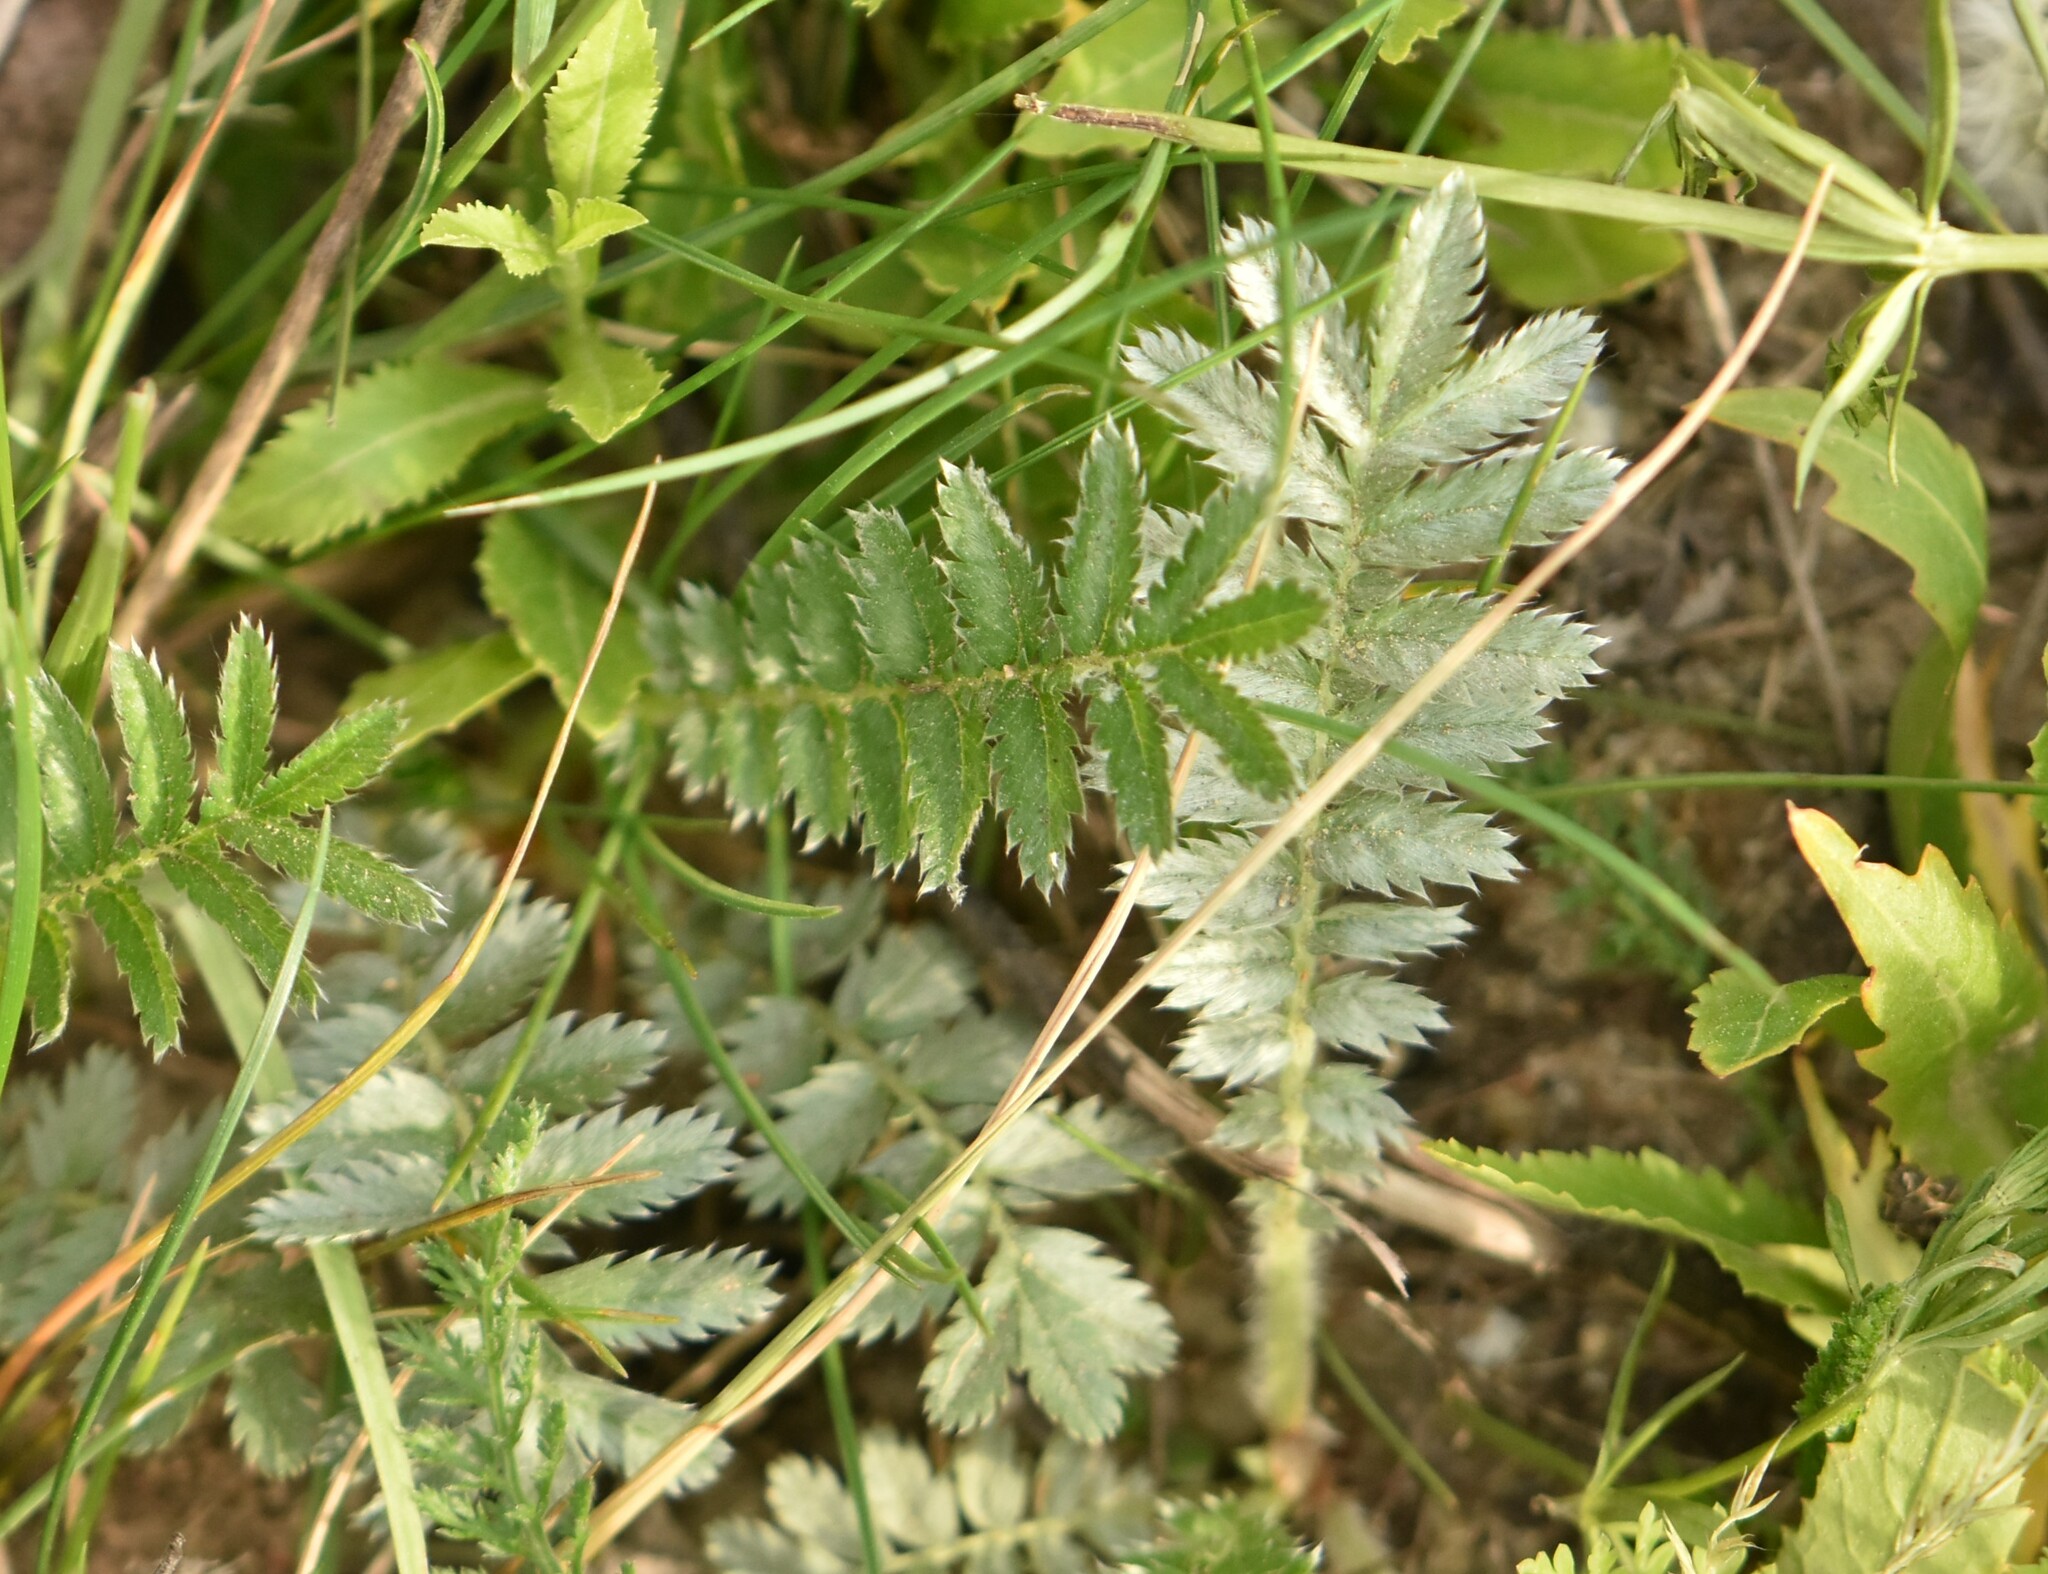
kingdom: Plantae
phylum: Tracheophyta
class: Magnoliopsida
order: Rosales
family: Rosaceae
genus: Argentina
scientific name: Argentina anserina
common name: Common silverweed
